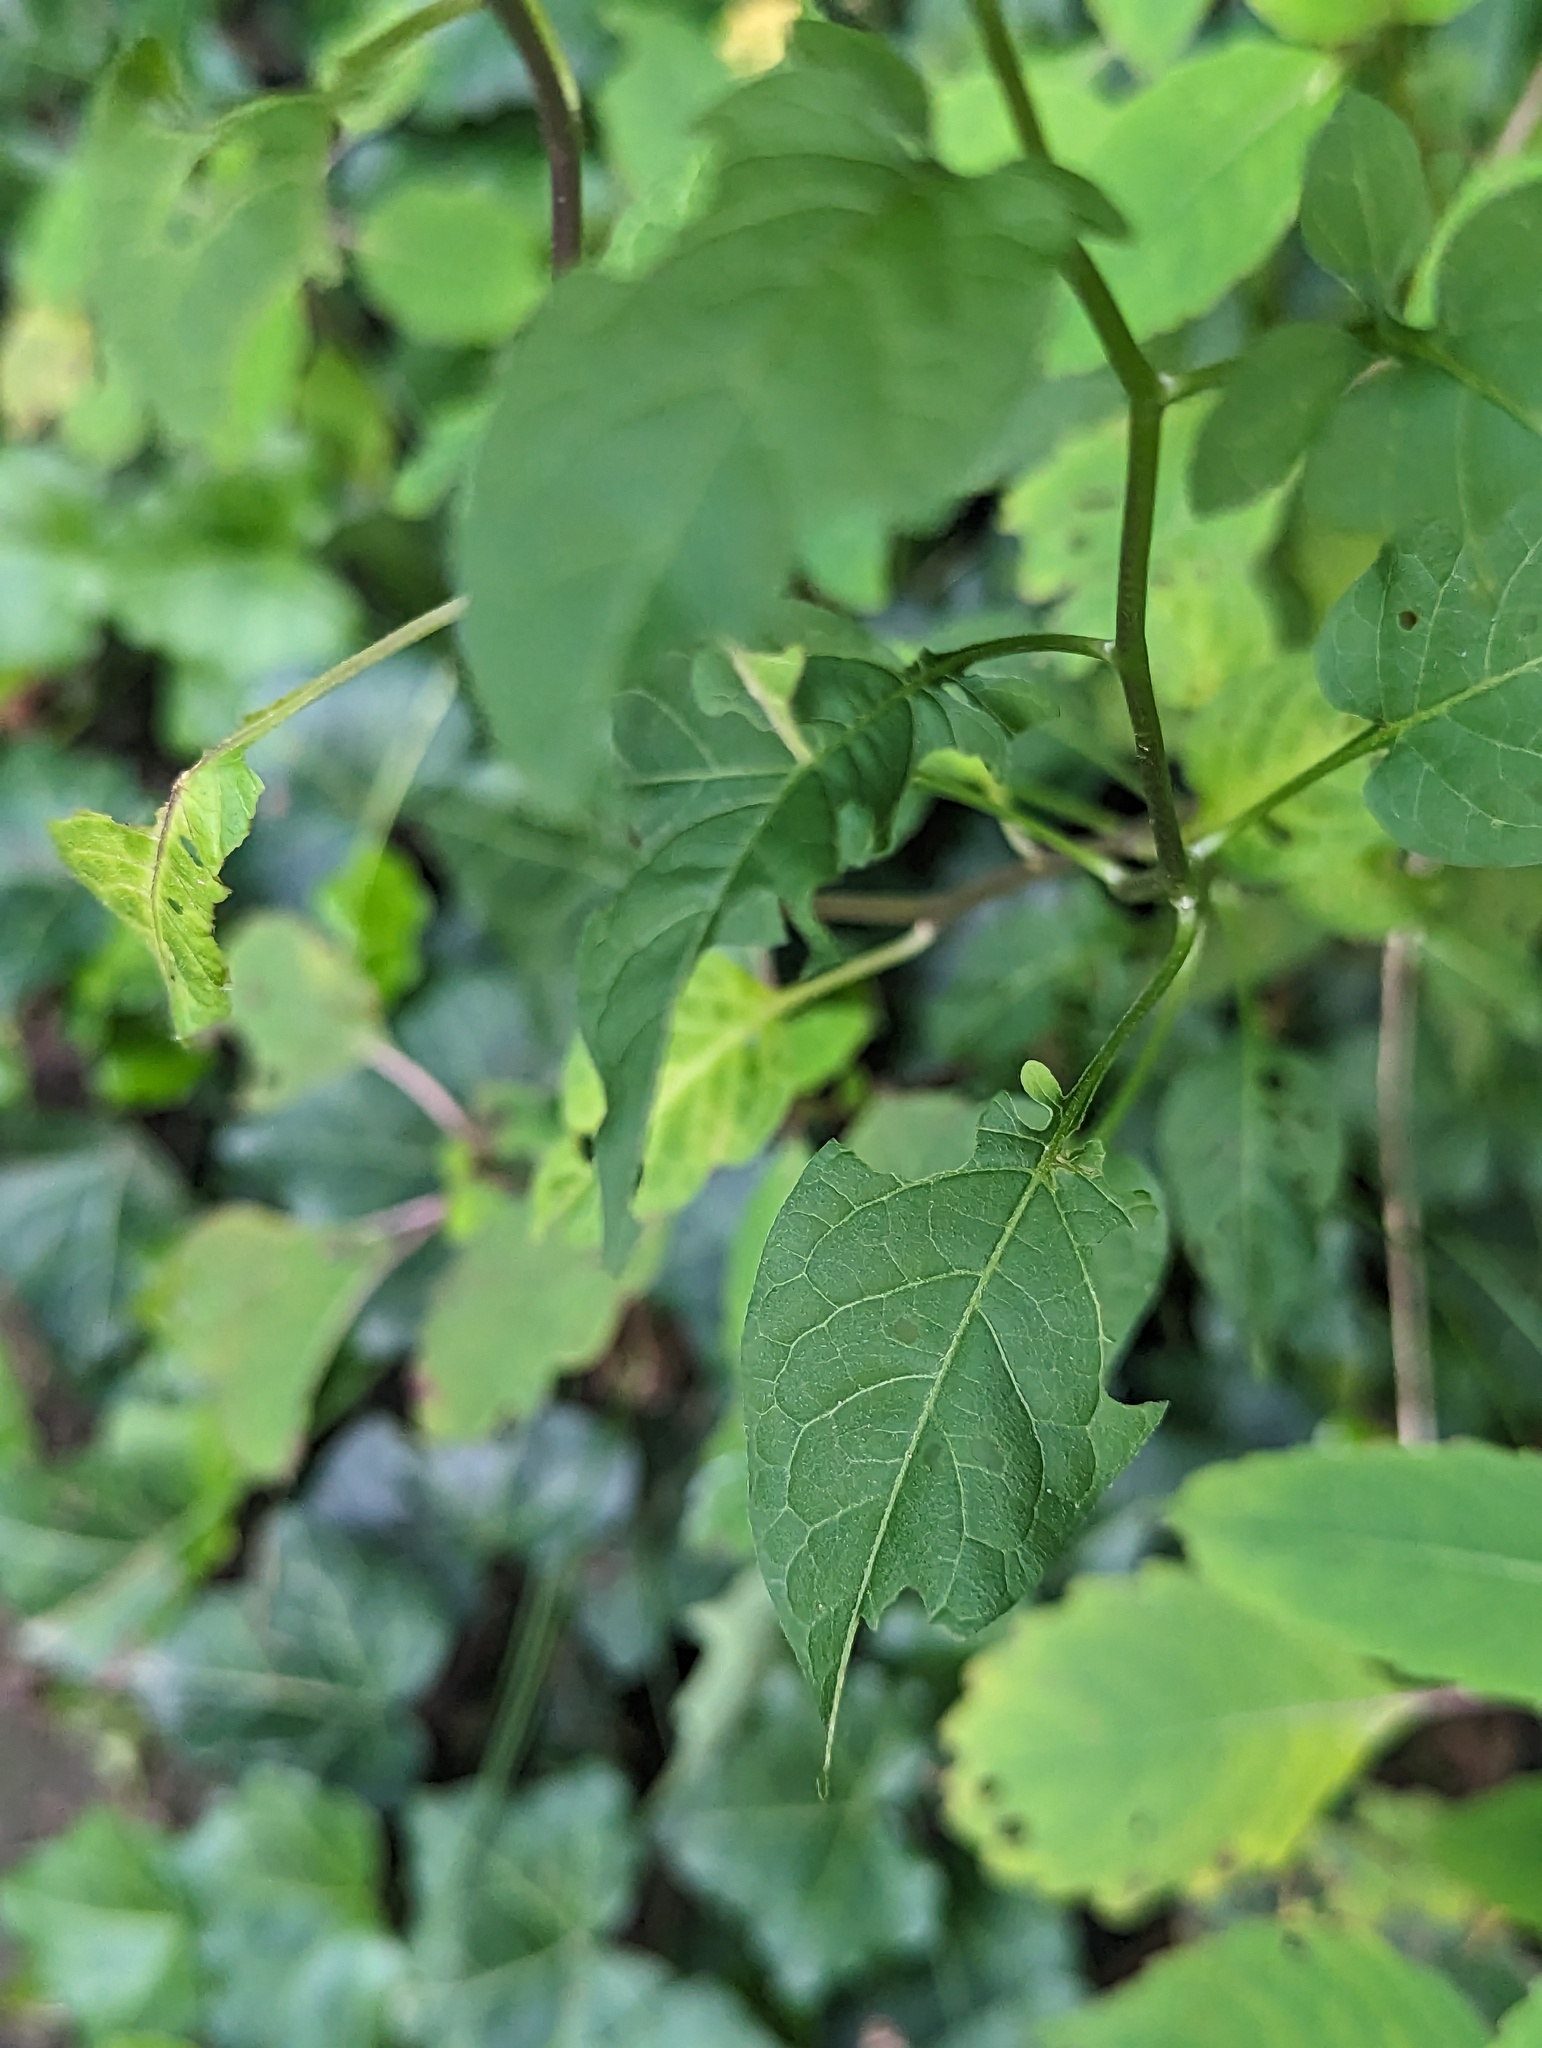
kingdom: Plantae
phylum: Tracheophyta
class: Magnoliopsida
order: Solanales
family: Solanaceae
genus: Solanum
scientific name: Solanum dulcamara
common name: Climbing nightshade
